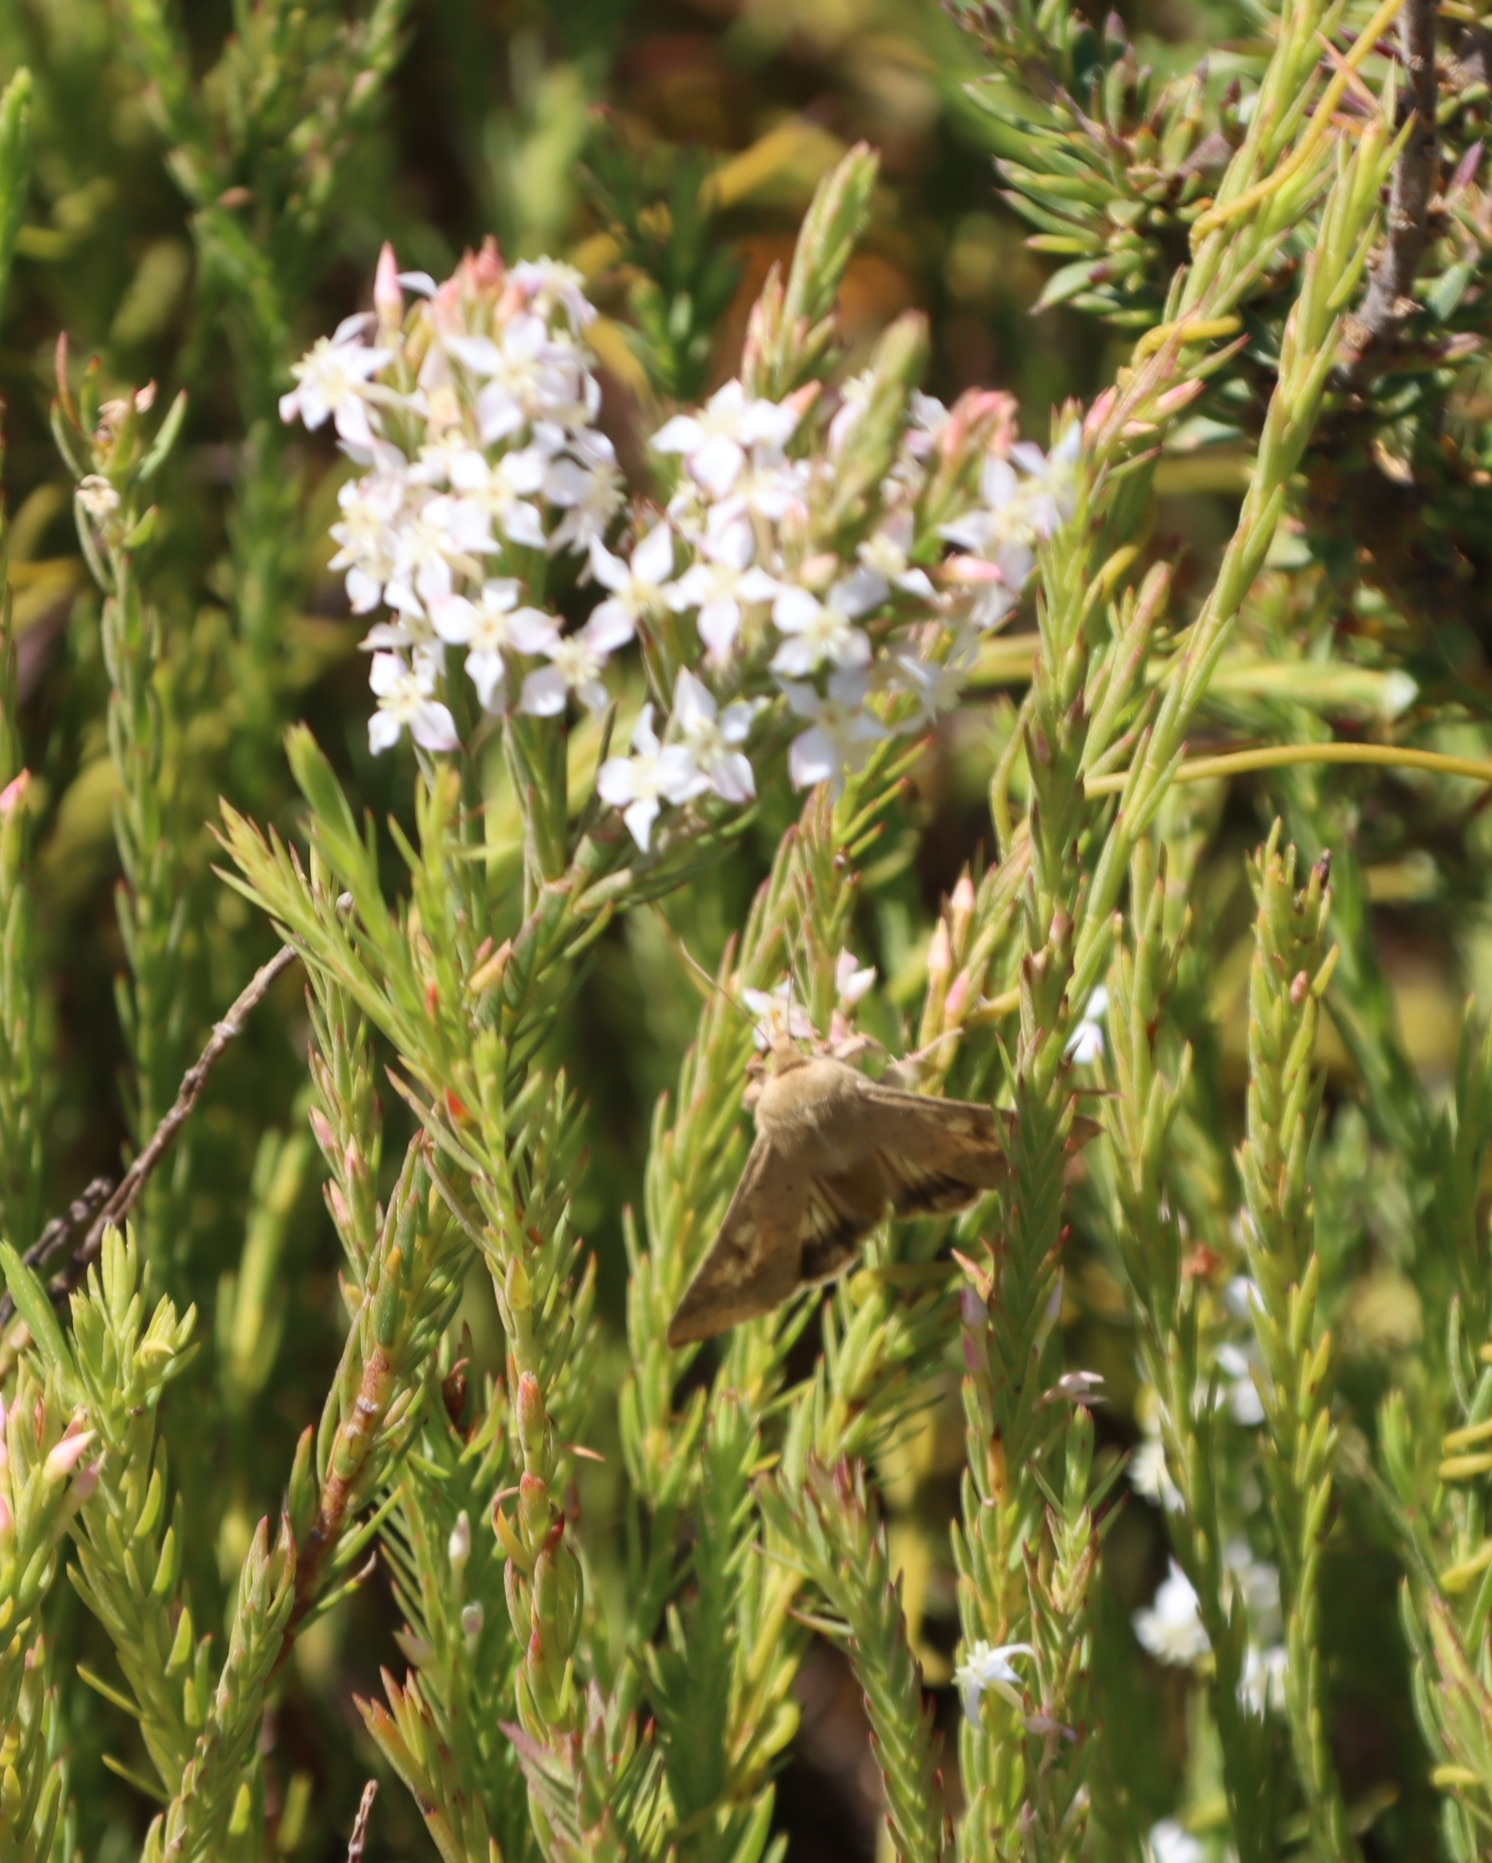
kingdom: Animalia
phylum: Arthropoda
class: Insecta
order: Lepidoptera
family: Noctuidae
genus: Helicoverpa
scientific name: Helicoverpa armigera
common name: Cotton bollworm
